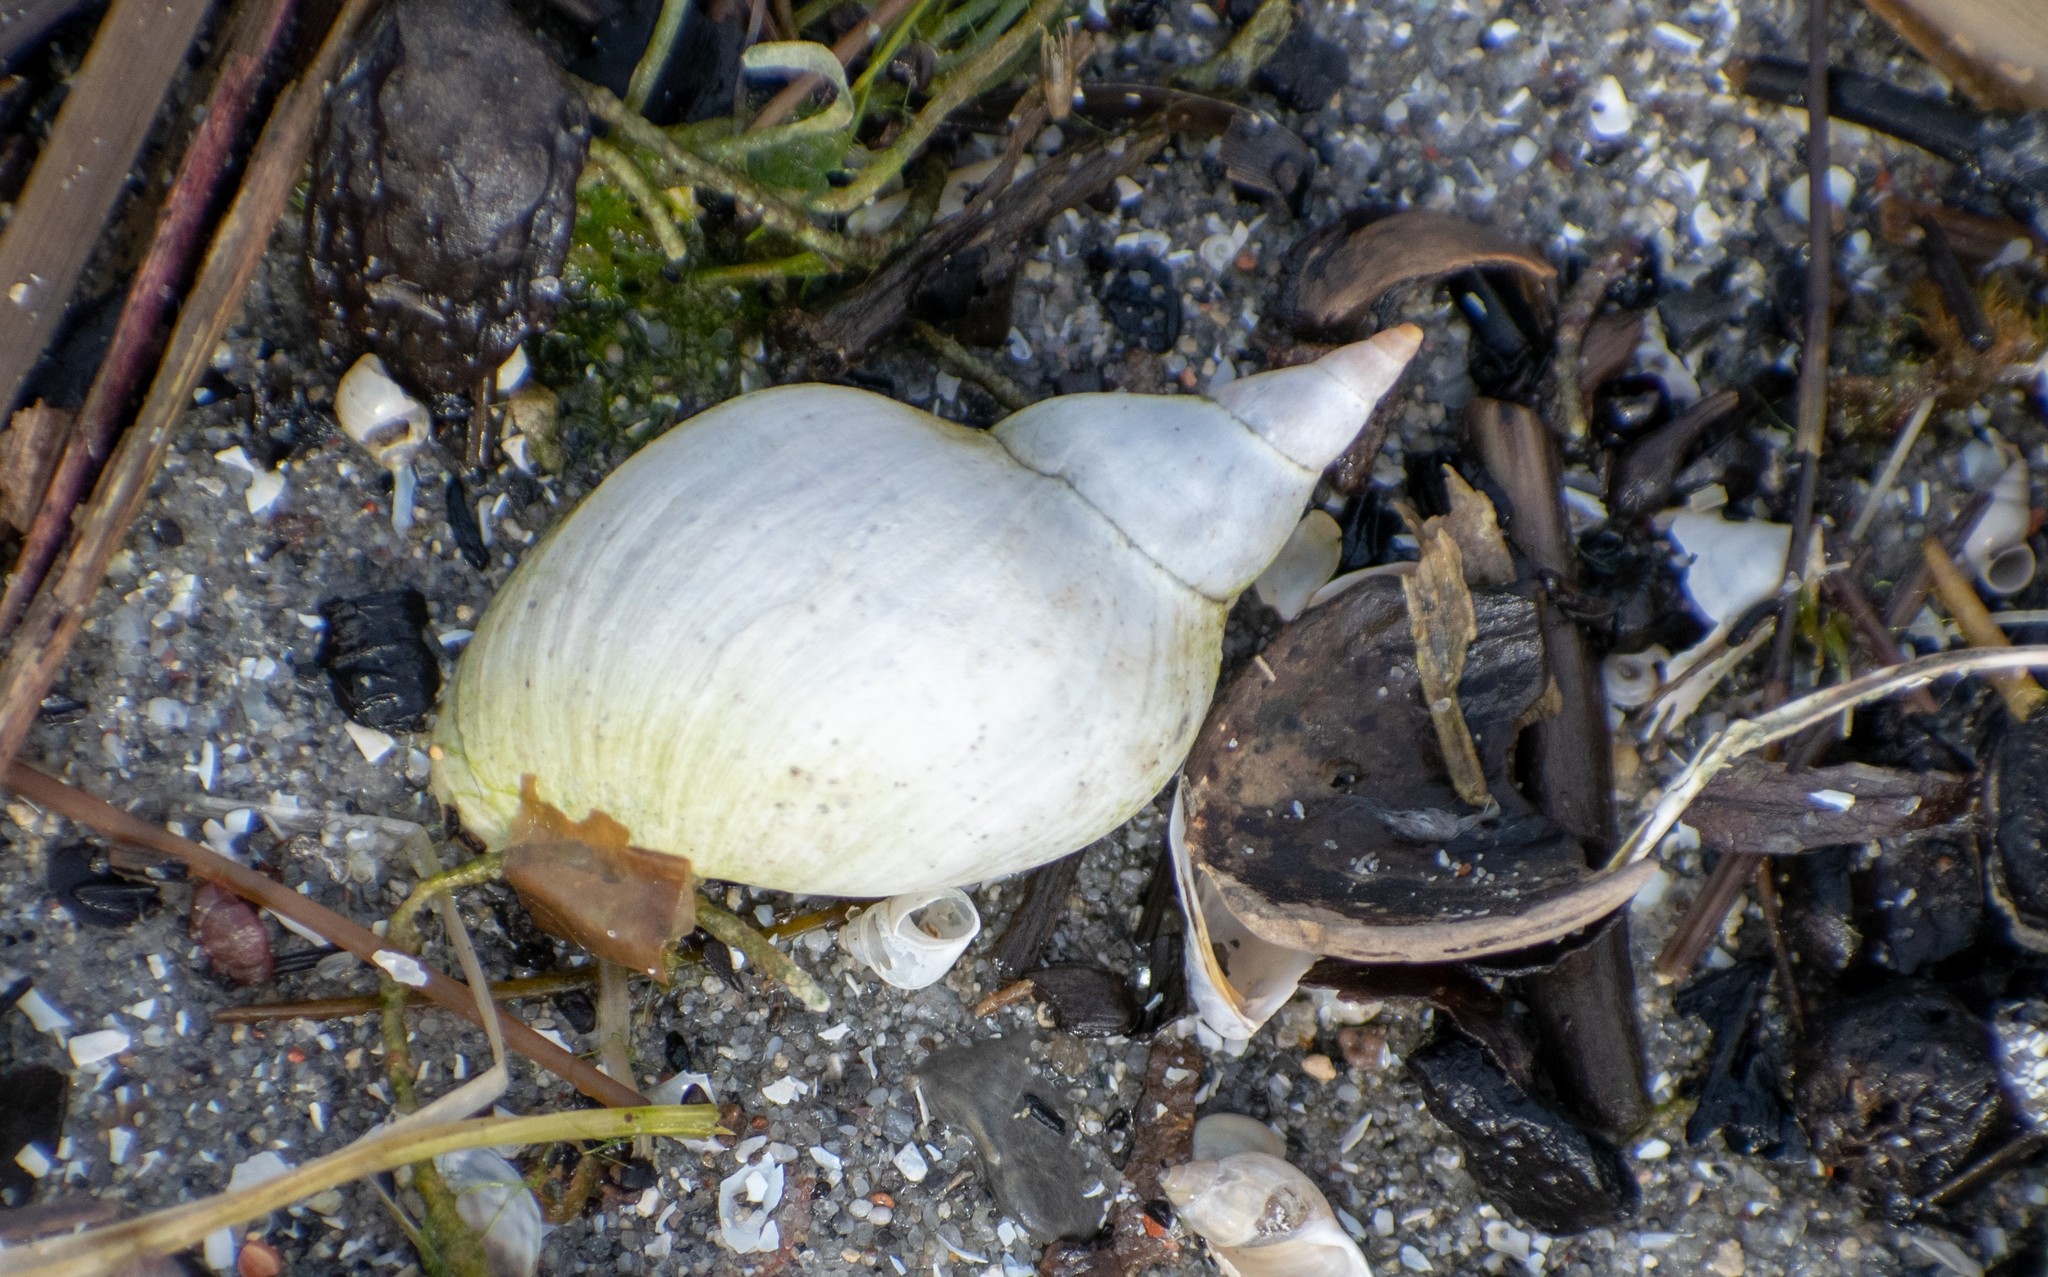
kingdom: Animalia
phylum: Mollusca
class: Gastropoda
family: Lymnaeidae
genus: Lymnaea
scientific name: Lymnaea stagnalis
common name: Great pond snail
